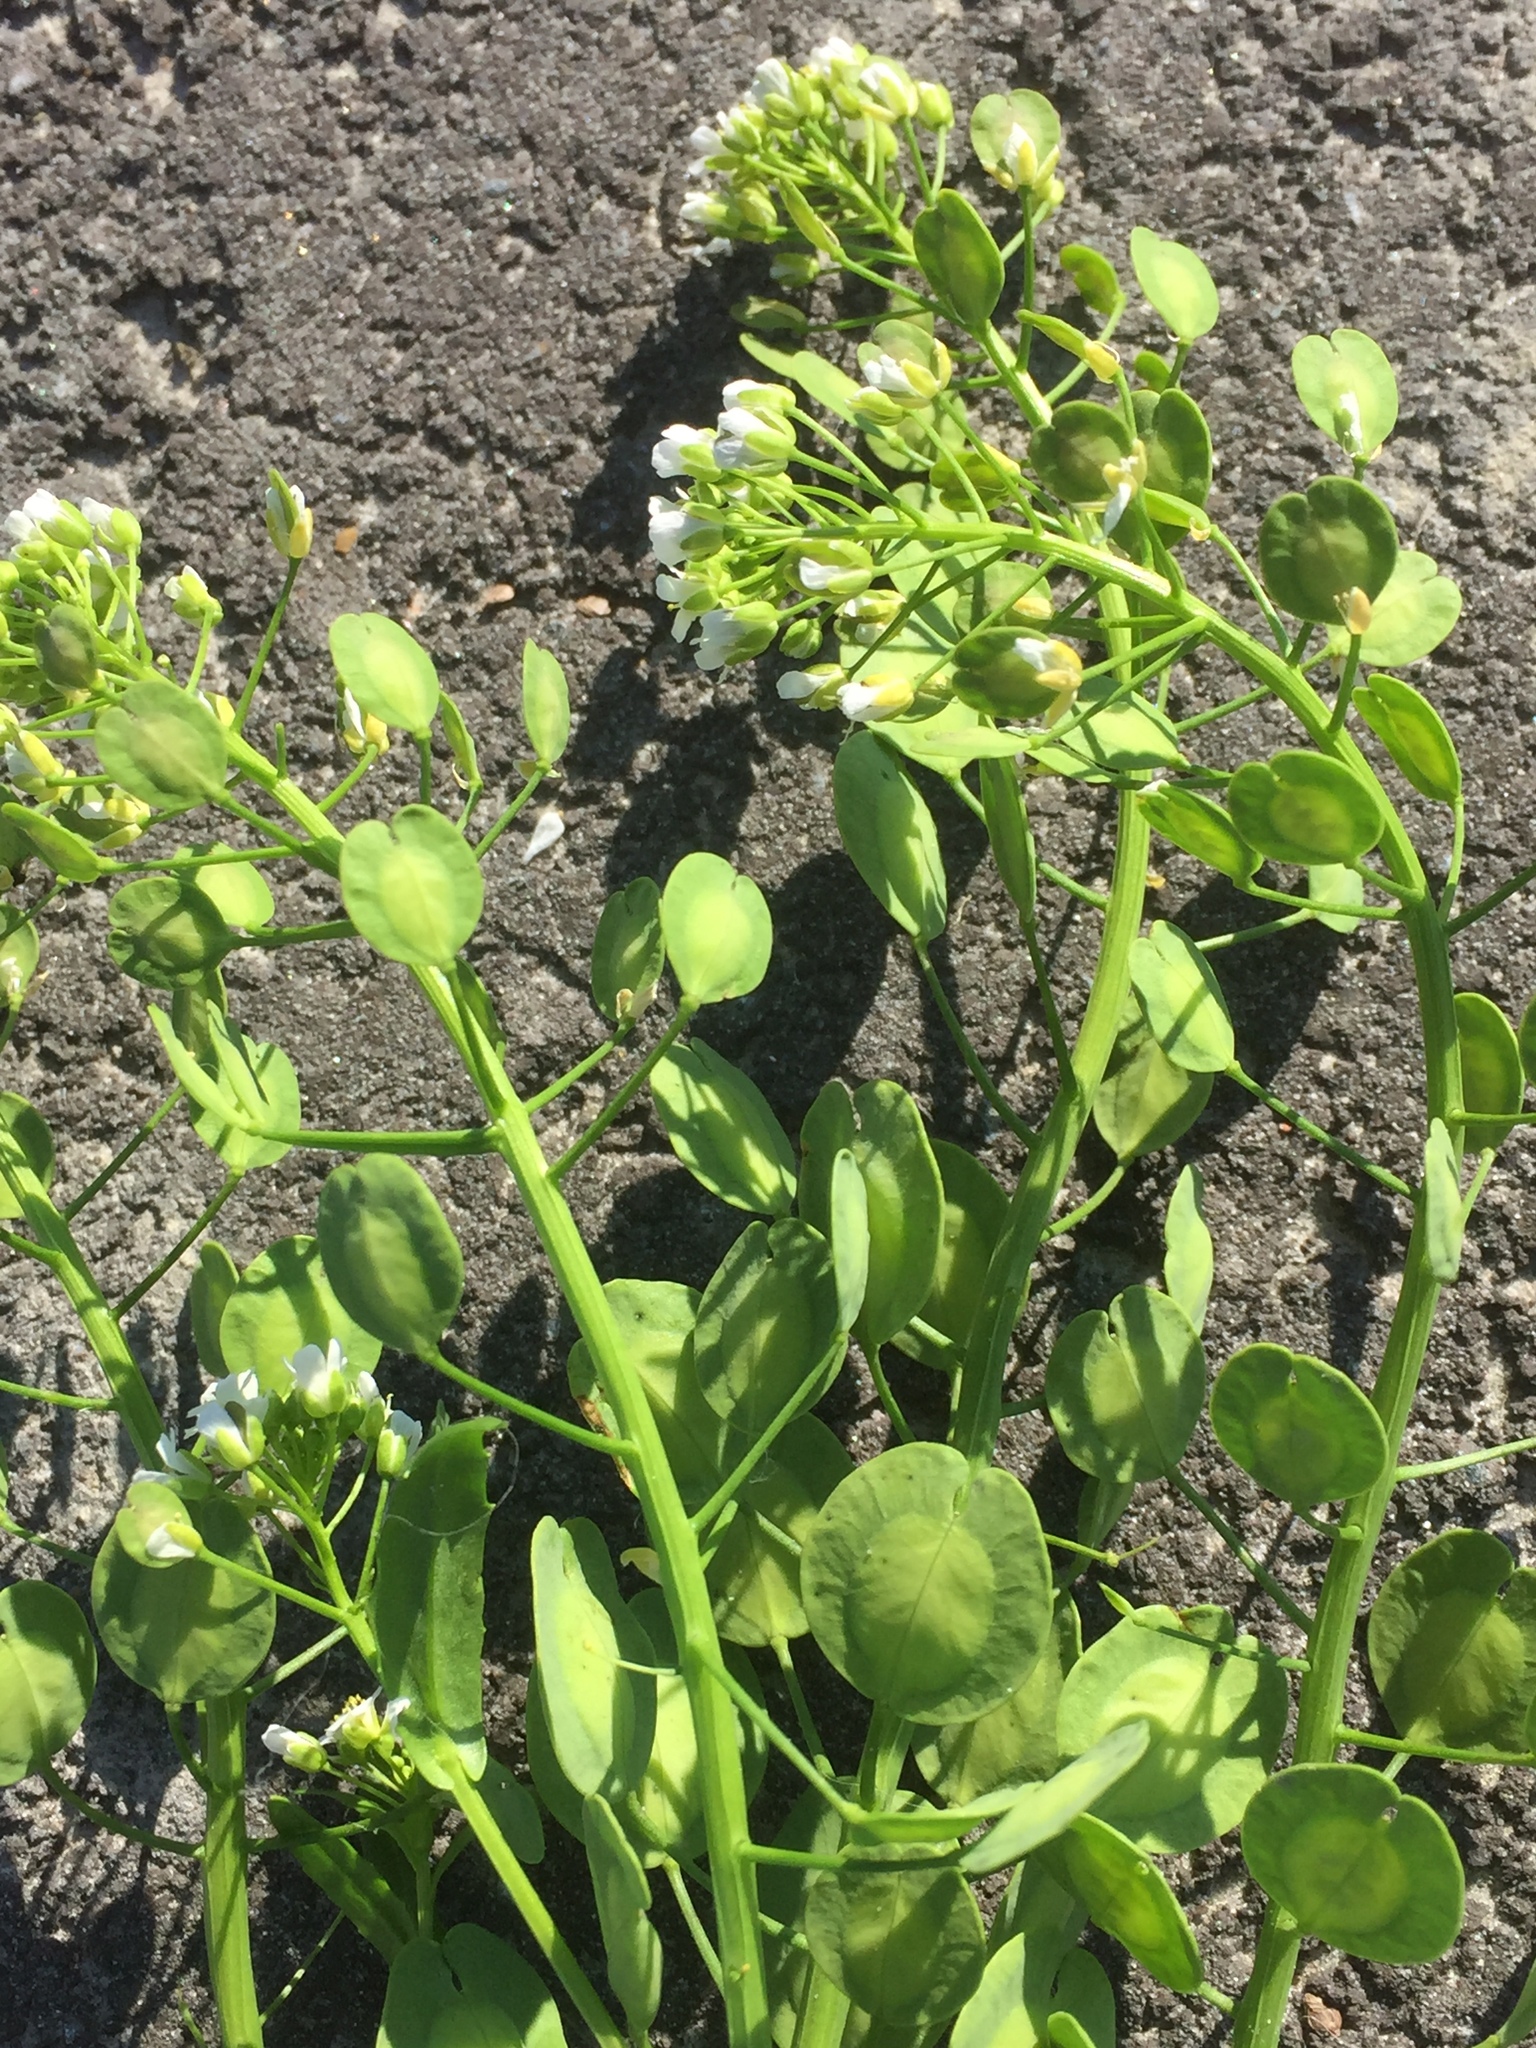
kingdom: Plantae
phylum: Tracheophyta
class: Magnoliopsida
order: Brassicales
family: Brassicaceae
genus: Thlaspi
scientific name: Thlaspi arvense
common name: Field pennycress
